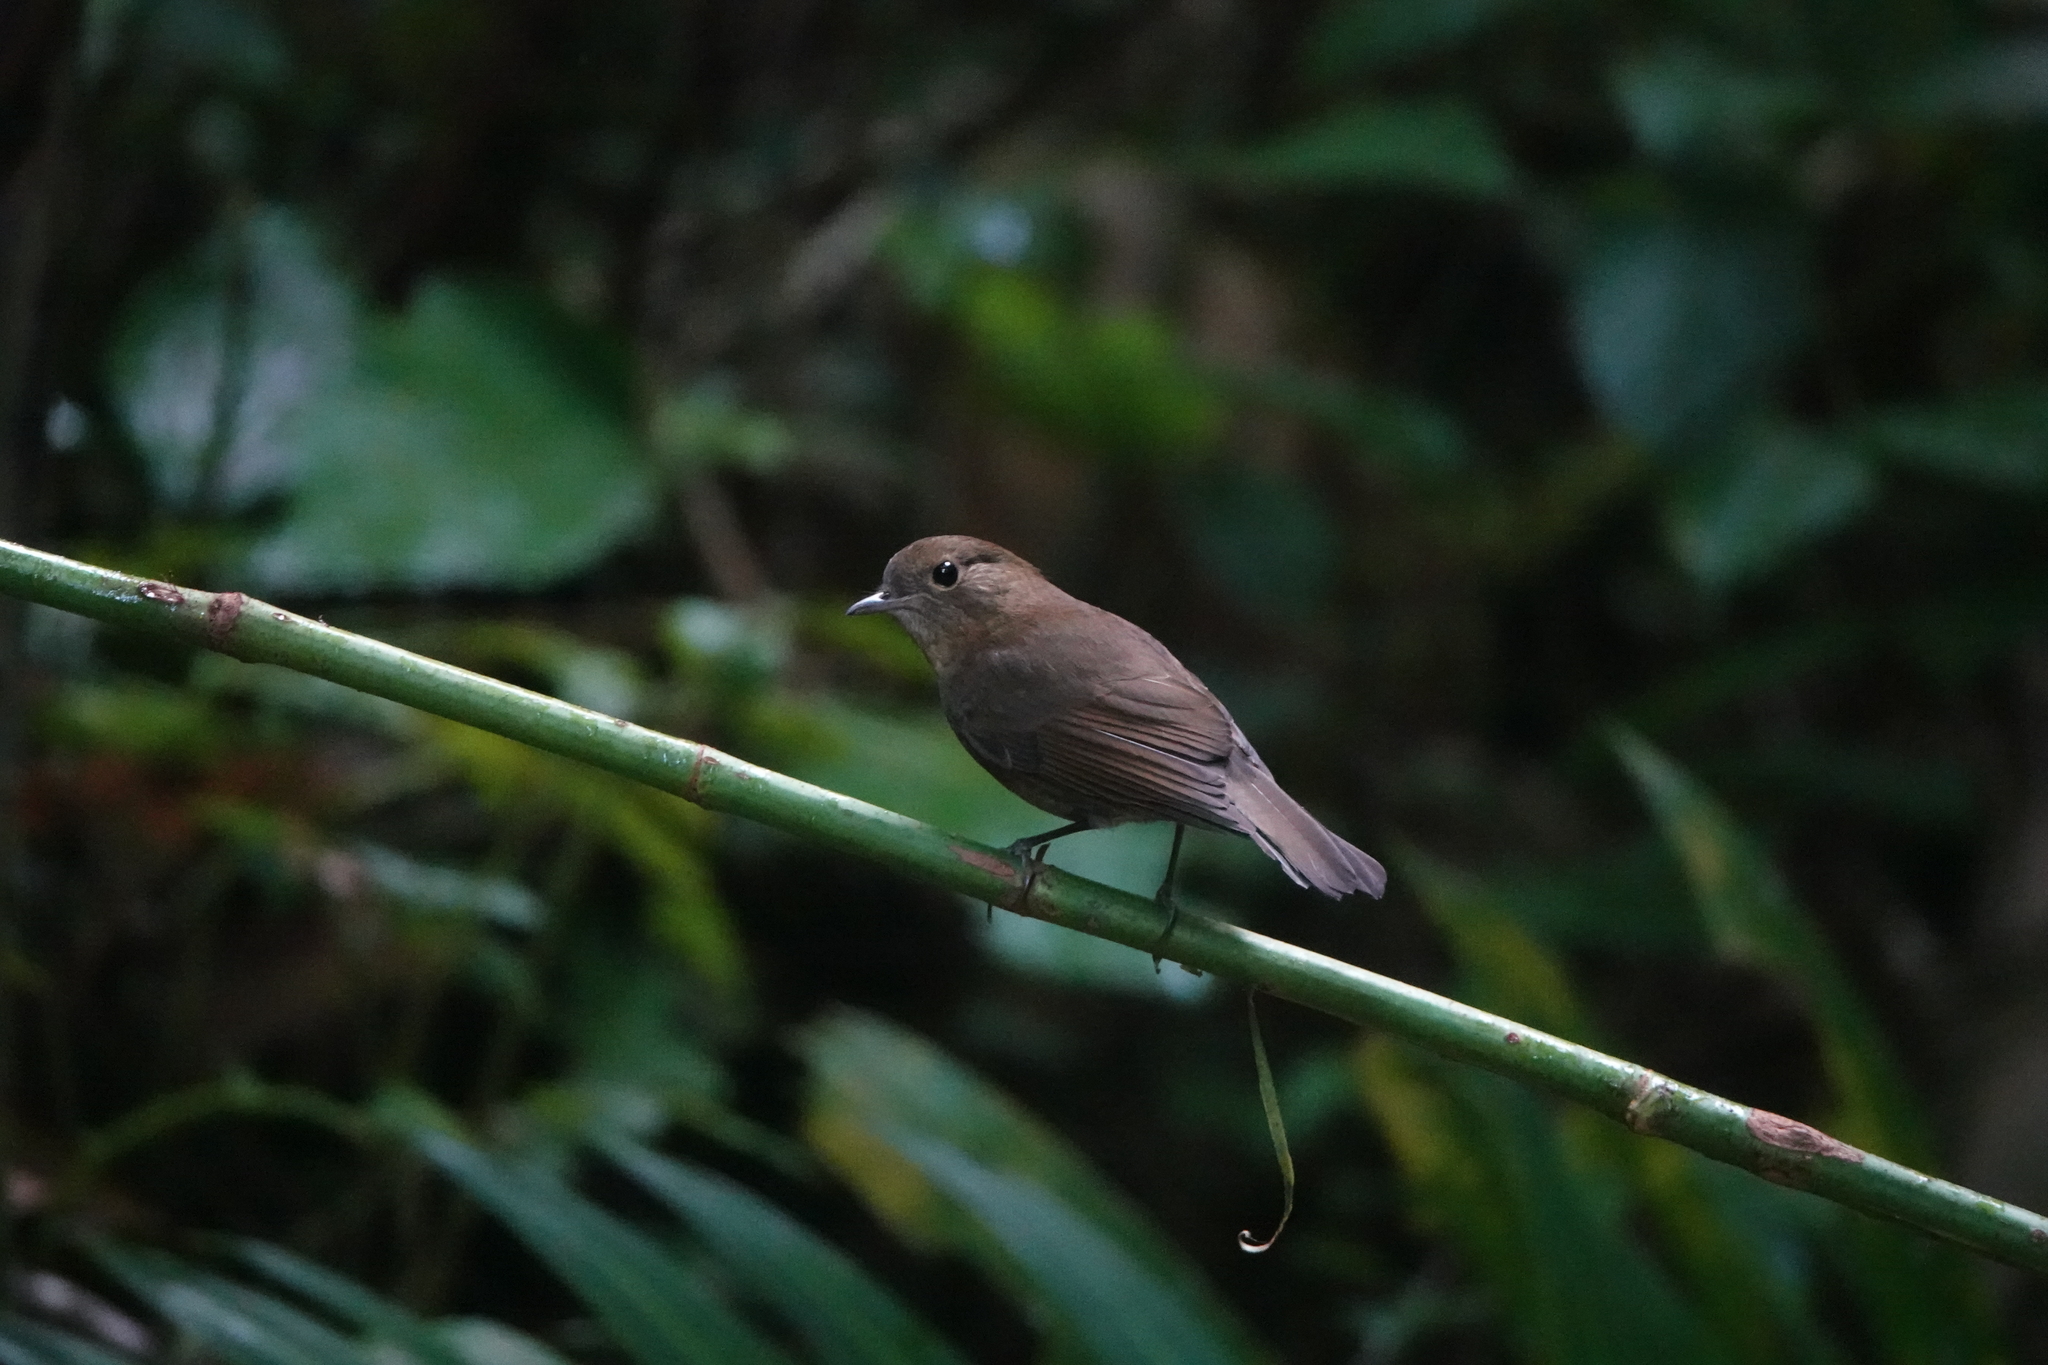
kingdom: Animalia
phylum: Chordata
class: Aves
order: Passeriformes
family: Muscicapidae
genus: Myiomela
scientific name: Myiomela leucura
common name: White-tailed robin
